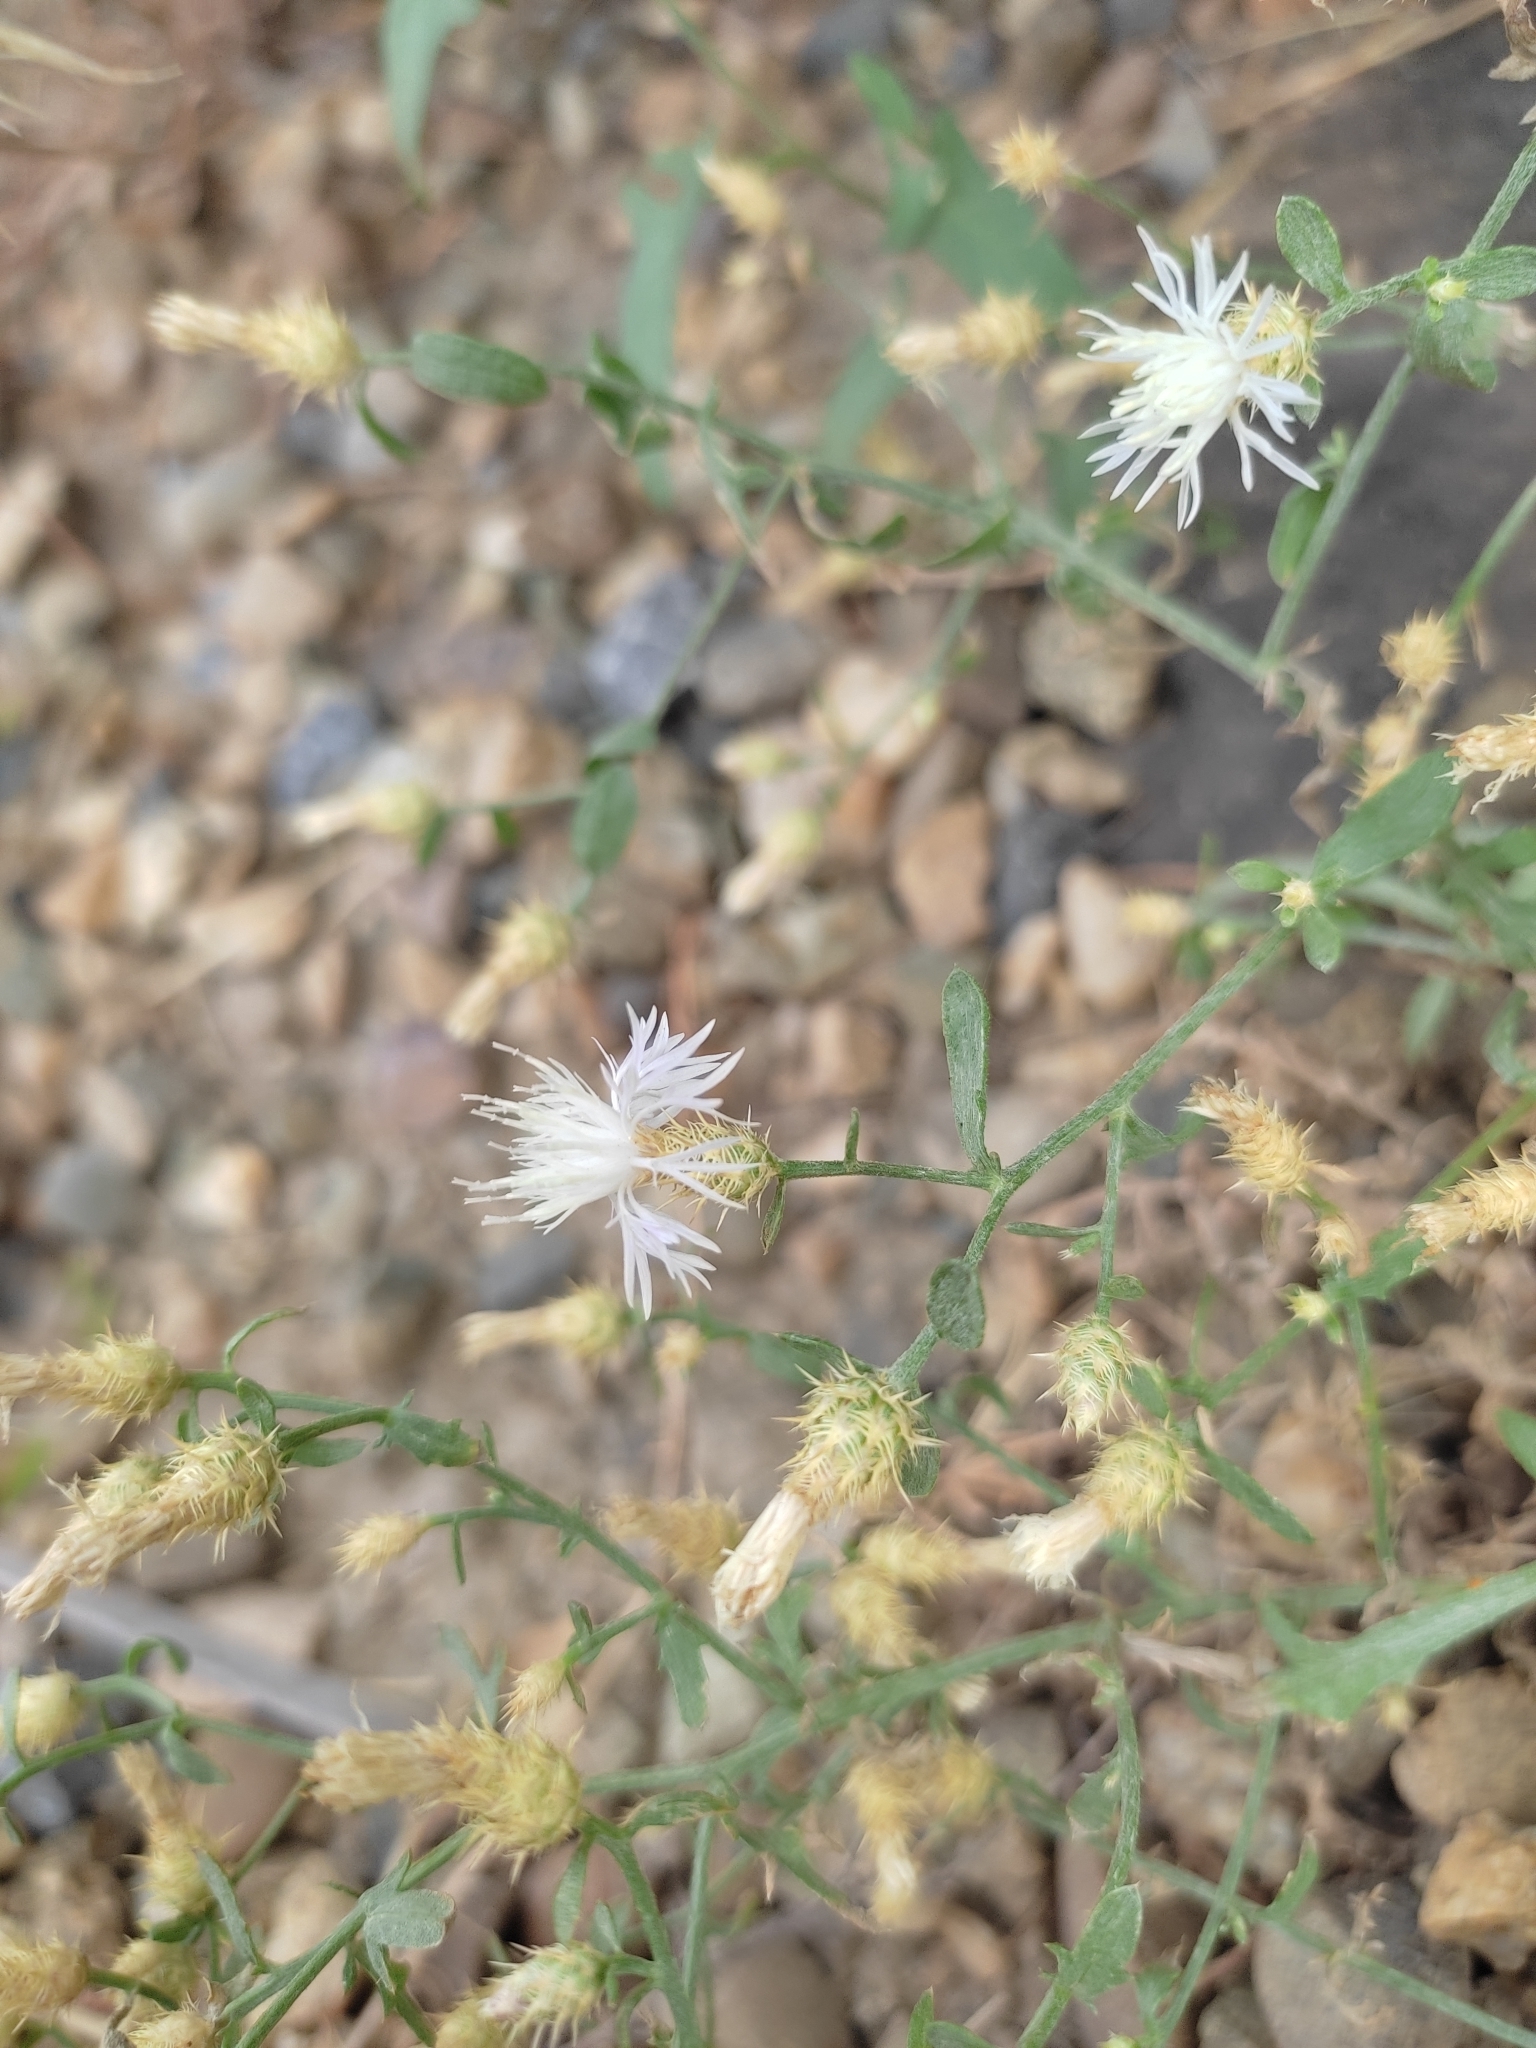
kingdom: Plantae
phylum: Tracheophyta
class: Magnoliopsida
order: Asterales
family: Asteraceae
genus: Centaurea
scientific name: Centaurea diffusa
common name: Diffuse knapweed
